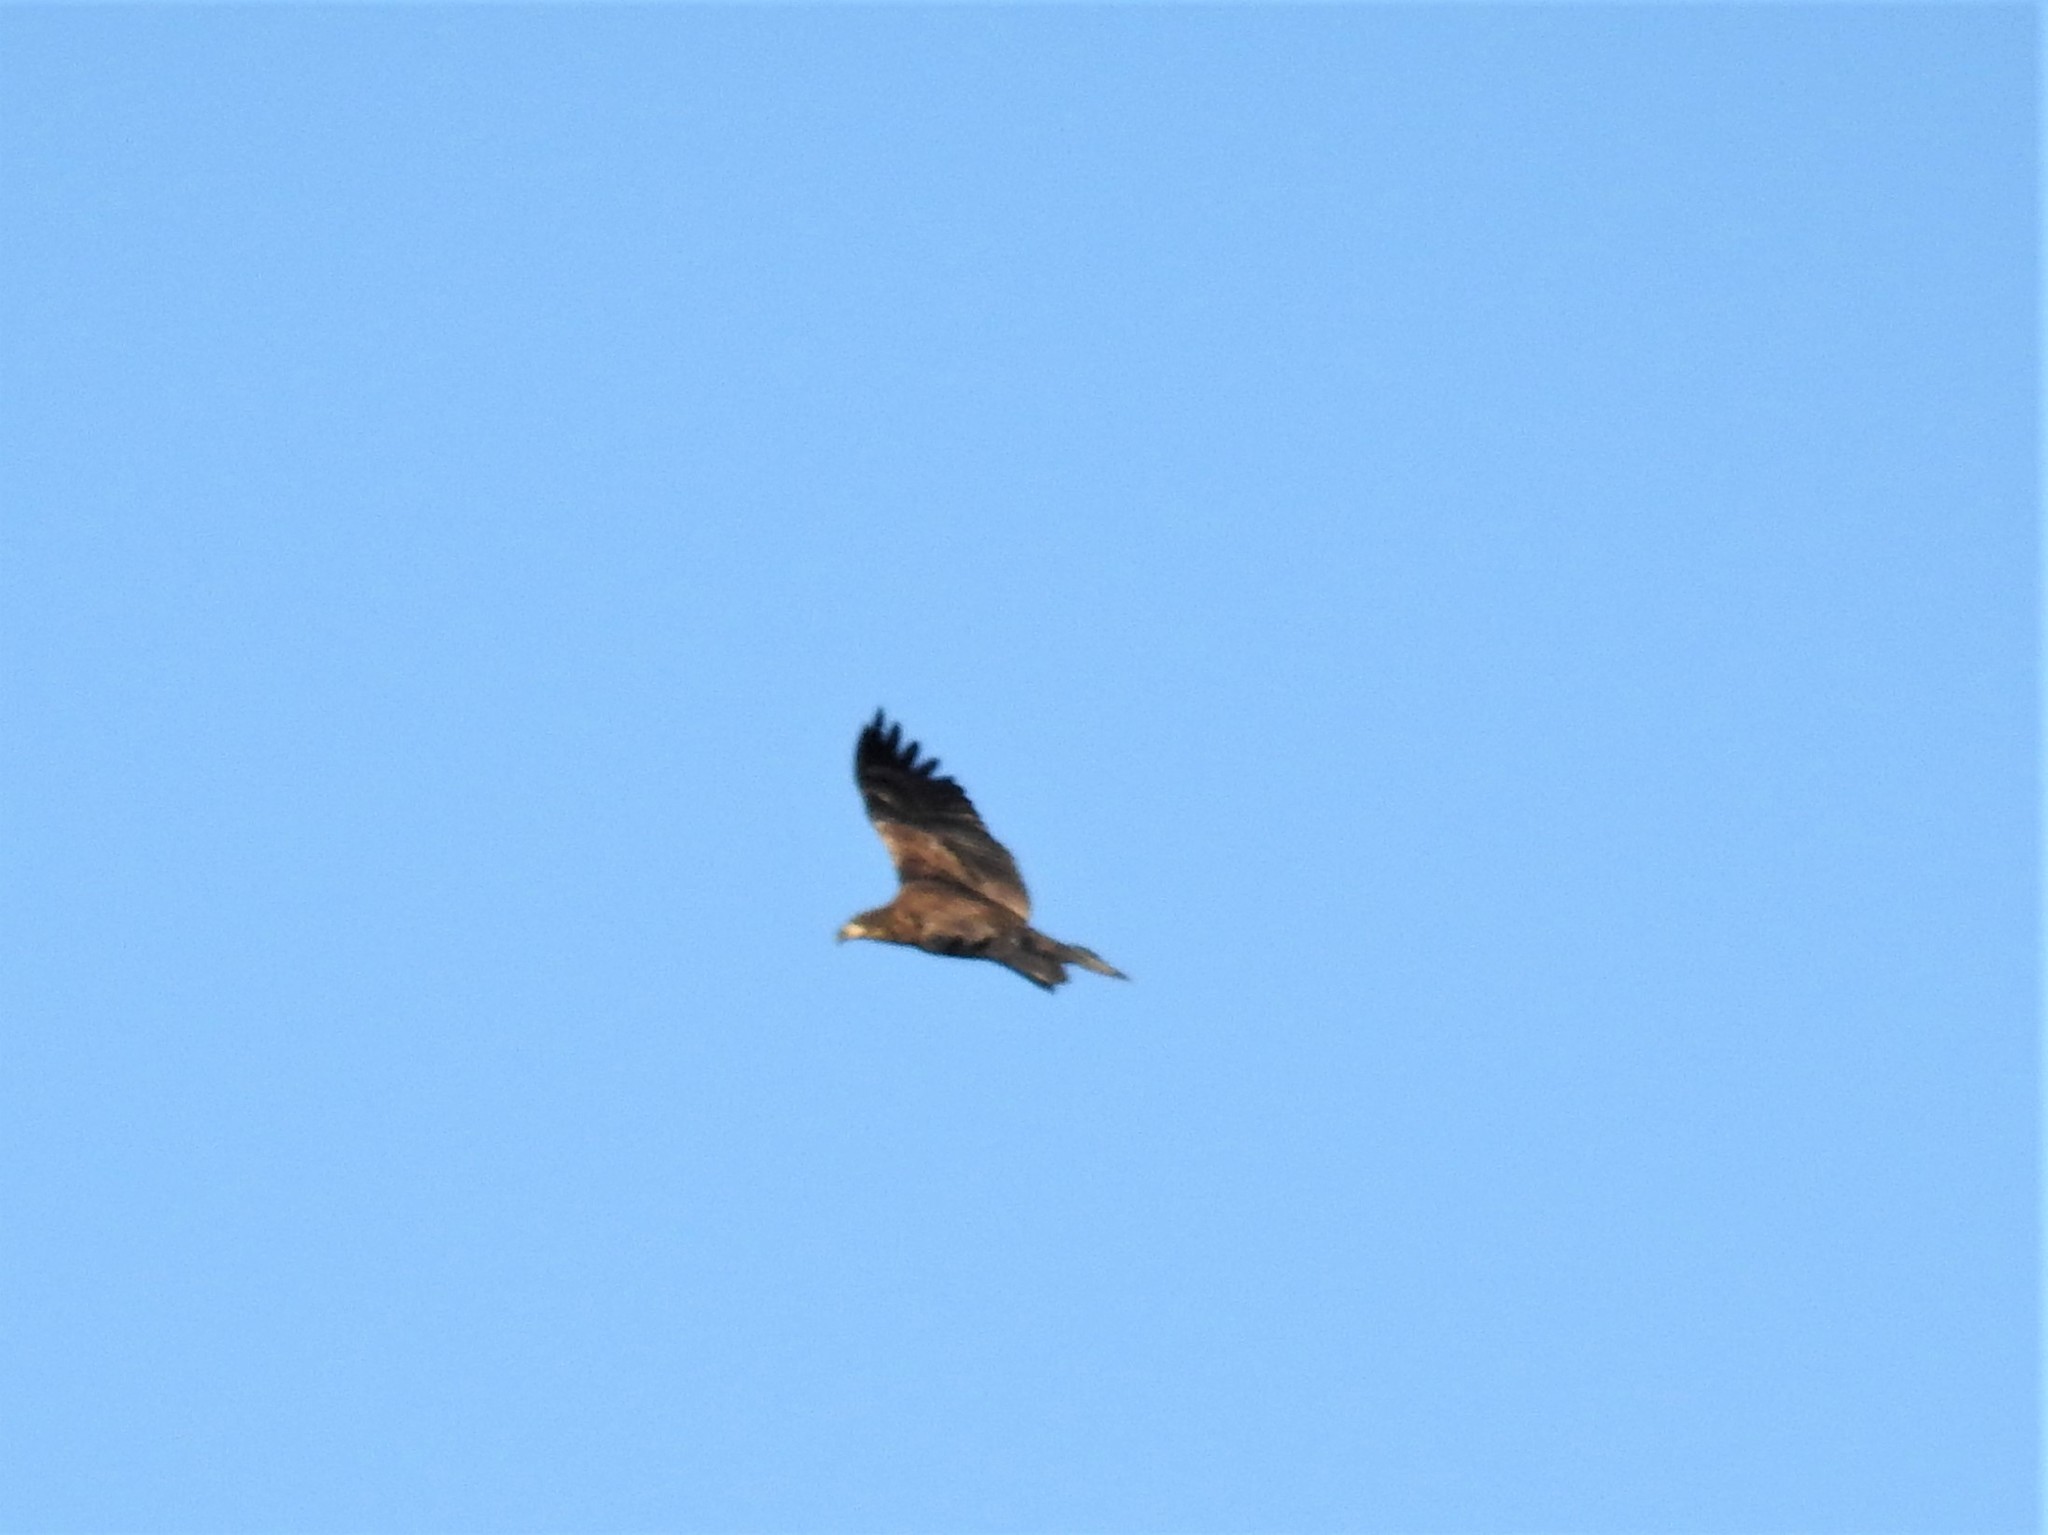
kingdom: Animalia
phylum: Chordata
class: Aves
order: Accipitriformes
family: Accipitridae
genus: Haliaeetus
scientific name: Haliaeetus leucocephalus
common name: Bald eagle
